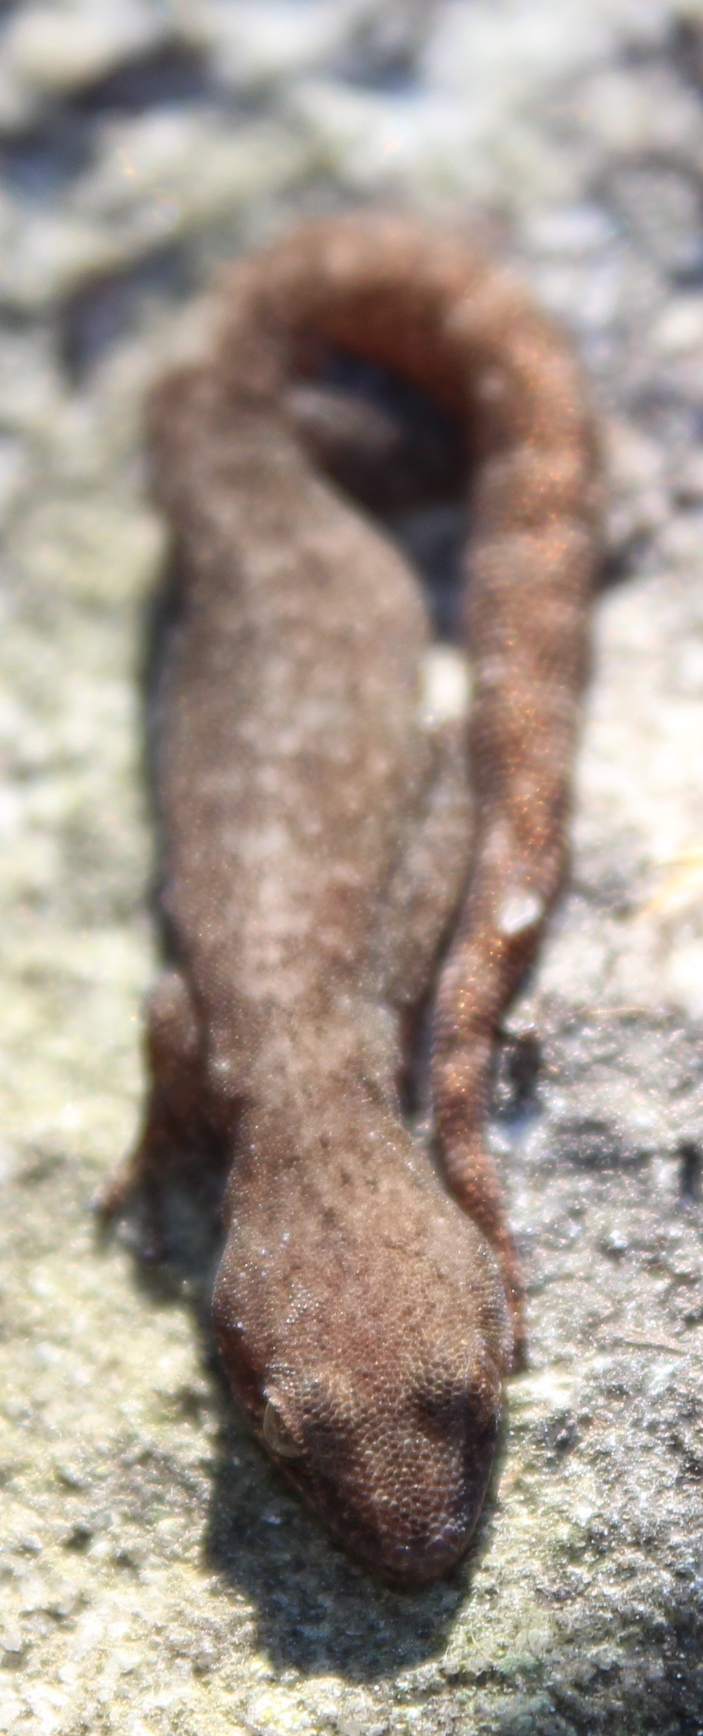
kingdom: Animalia
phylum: Chordata
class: Squamata
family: Gekkonidae
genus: Afrogecko
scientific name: Afrogecko porphyreus
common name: Marbled leaf-toed gecko
